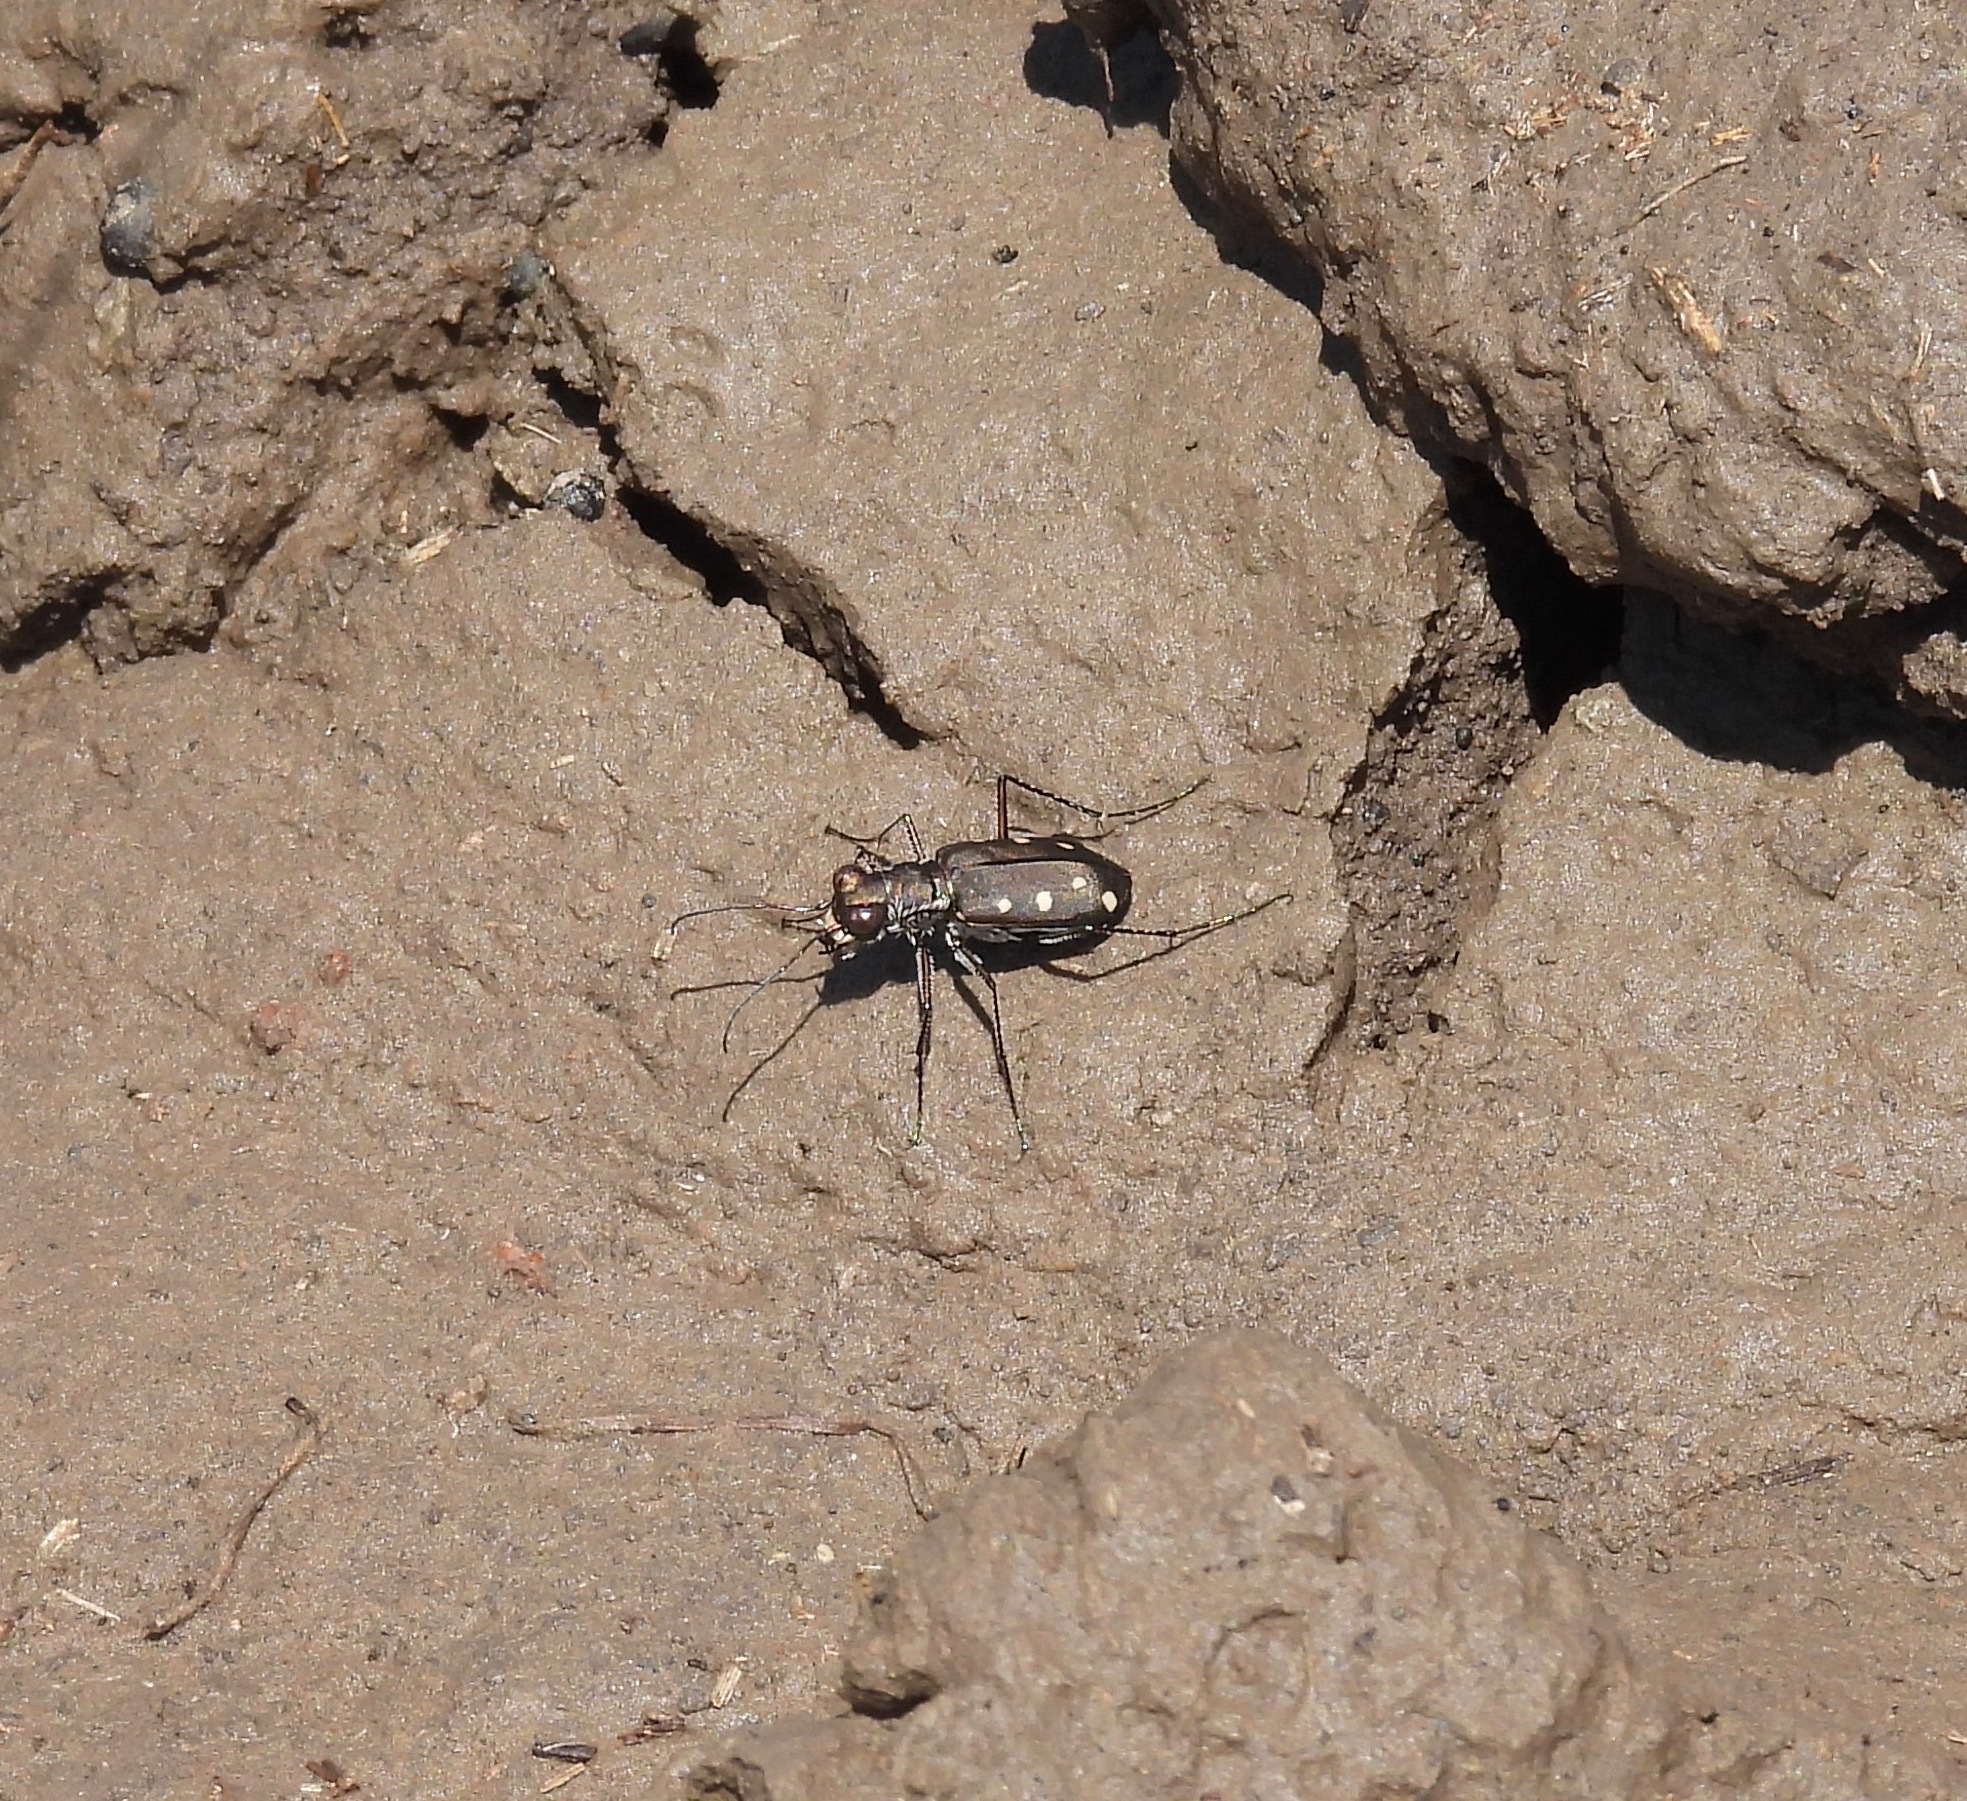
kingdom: Animalia
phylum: Arthropoda
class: Insecta
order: Coleoptera
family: Carabidae
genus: Cicindela
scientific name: Cicindela ocellata
